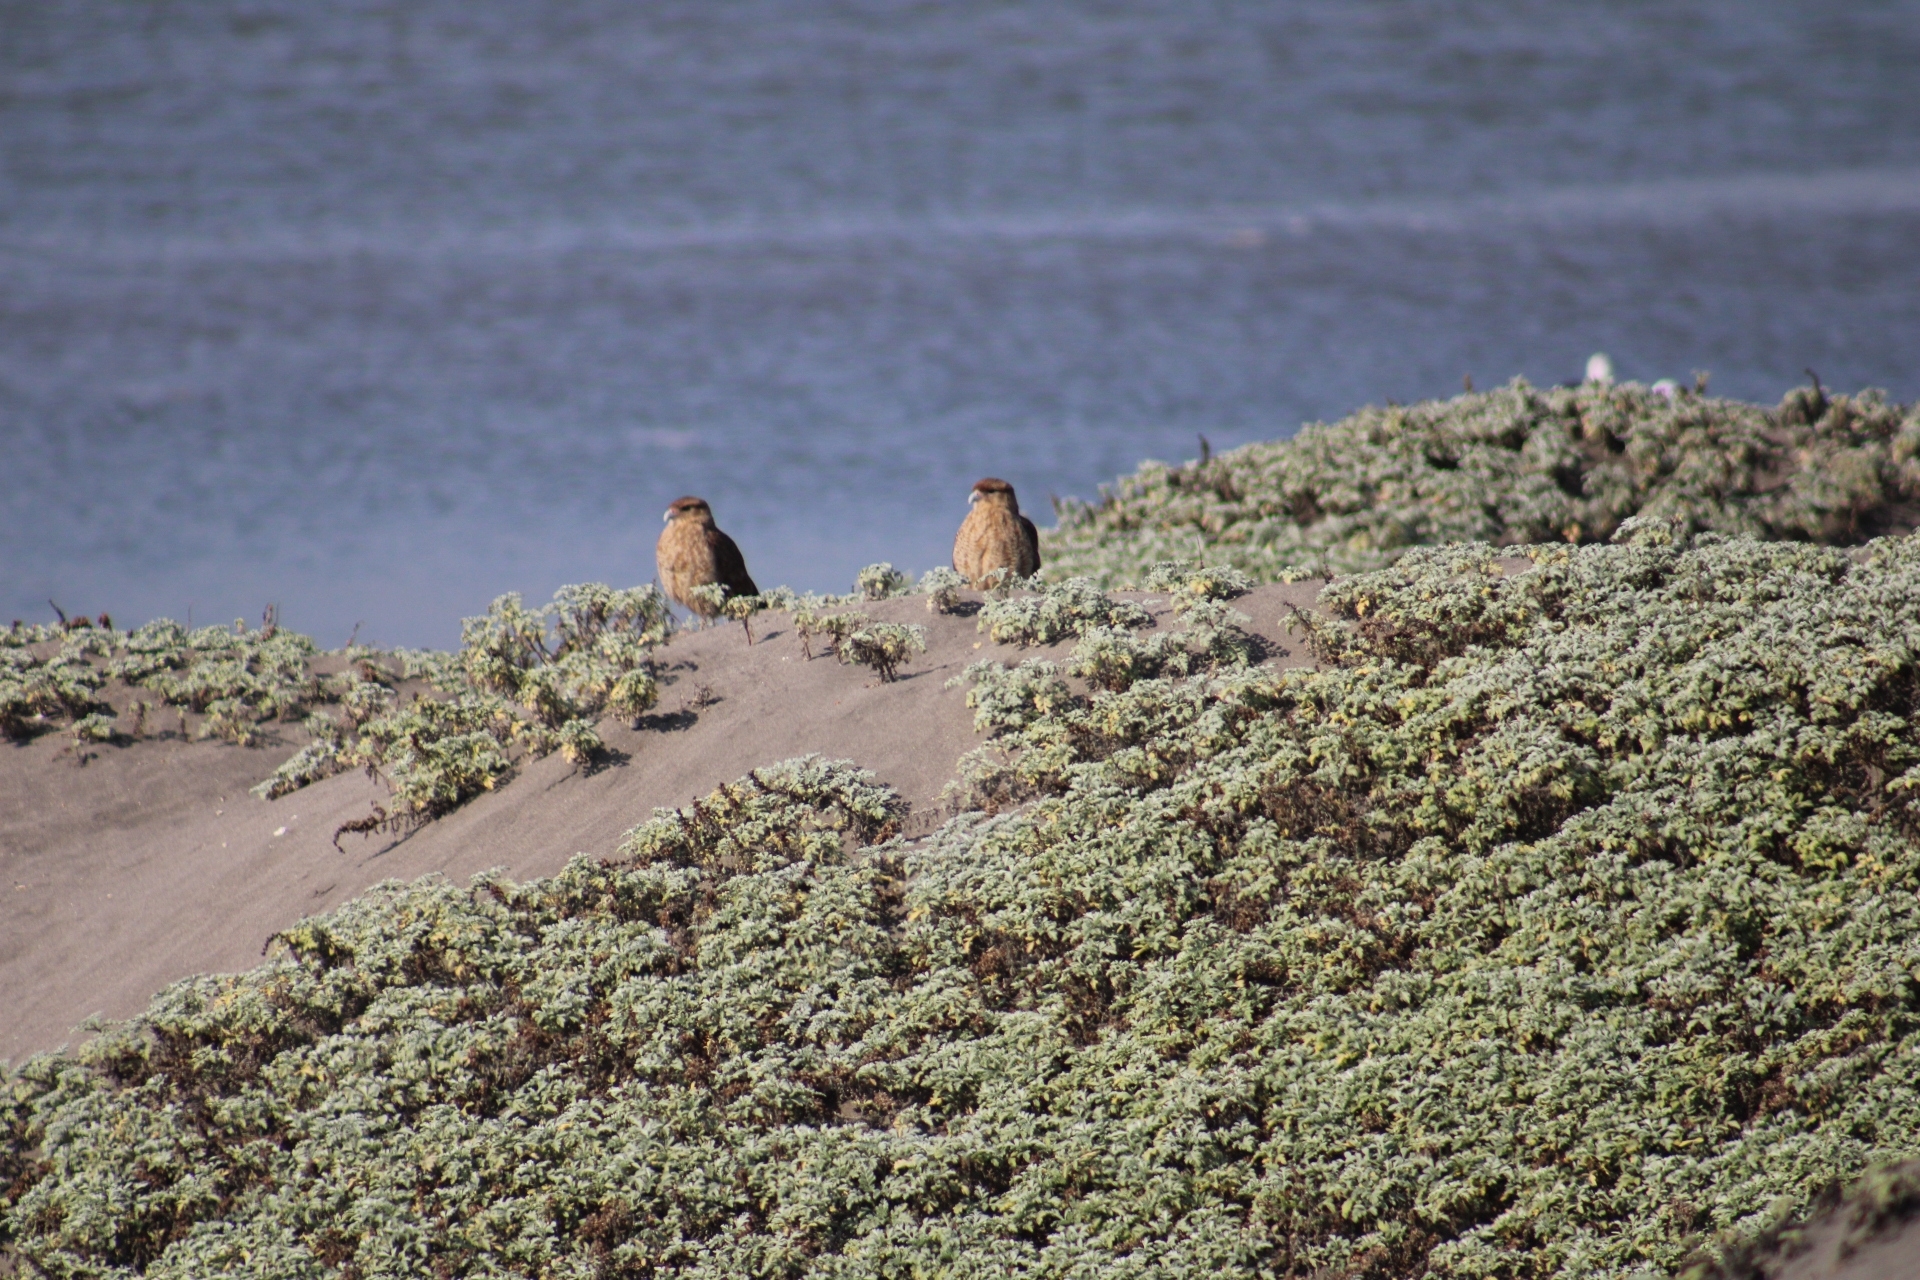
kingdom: Animalia
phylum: Chordata
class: Aves
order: Falconiformes
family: Falconidae
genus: Daptrius
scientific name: Daptrius
